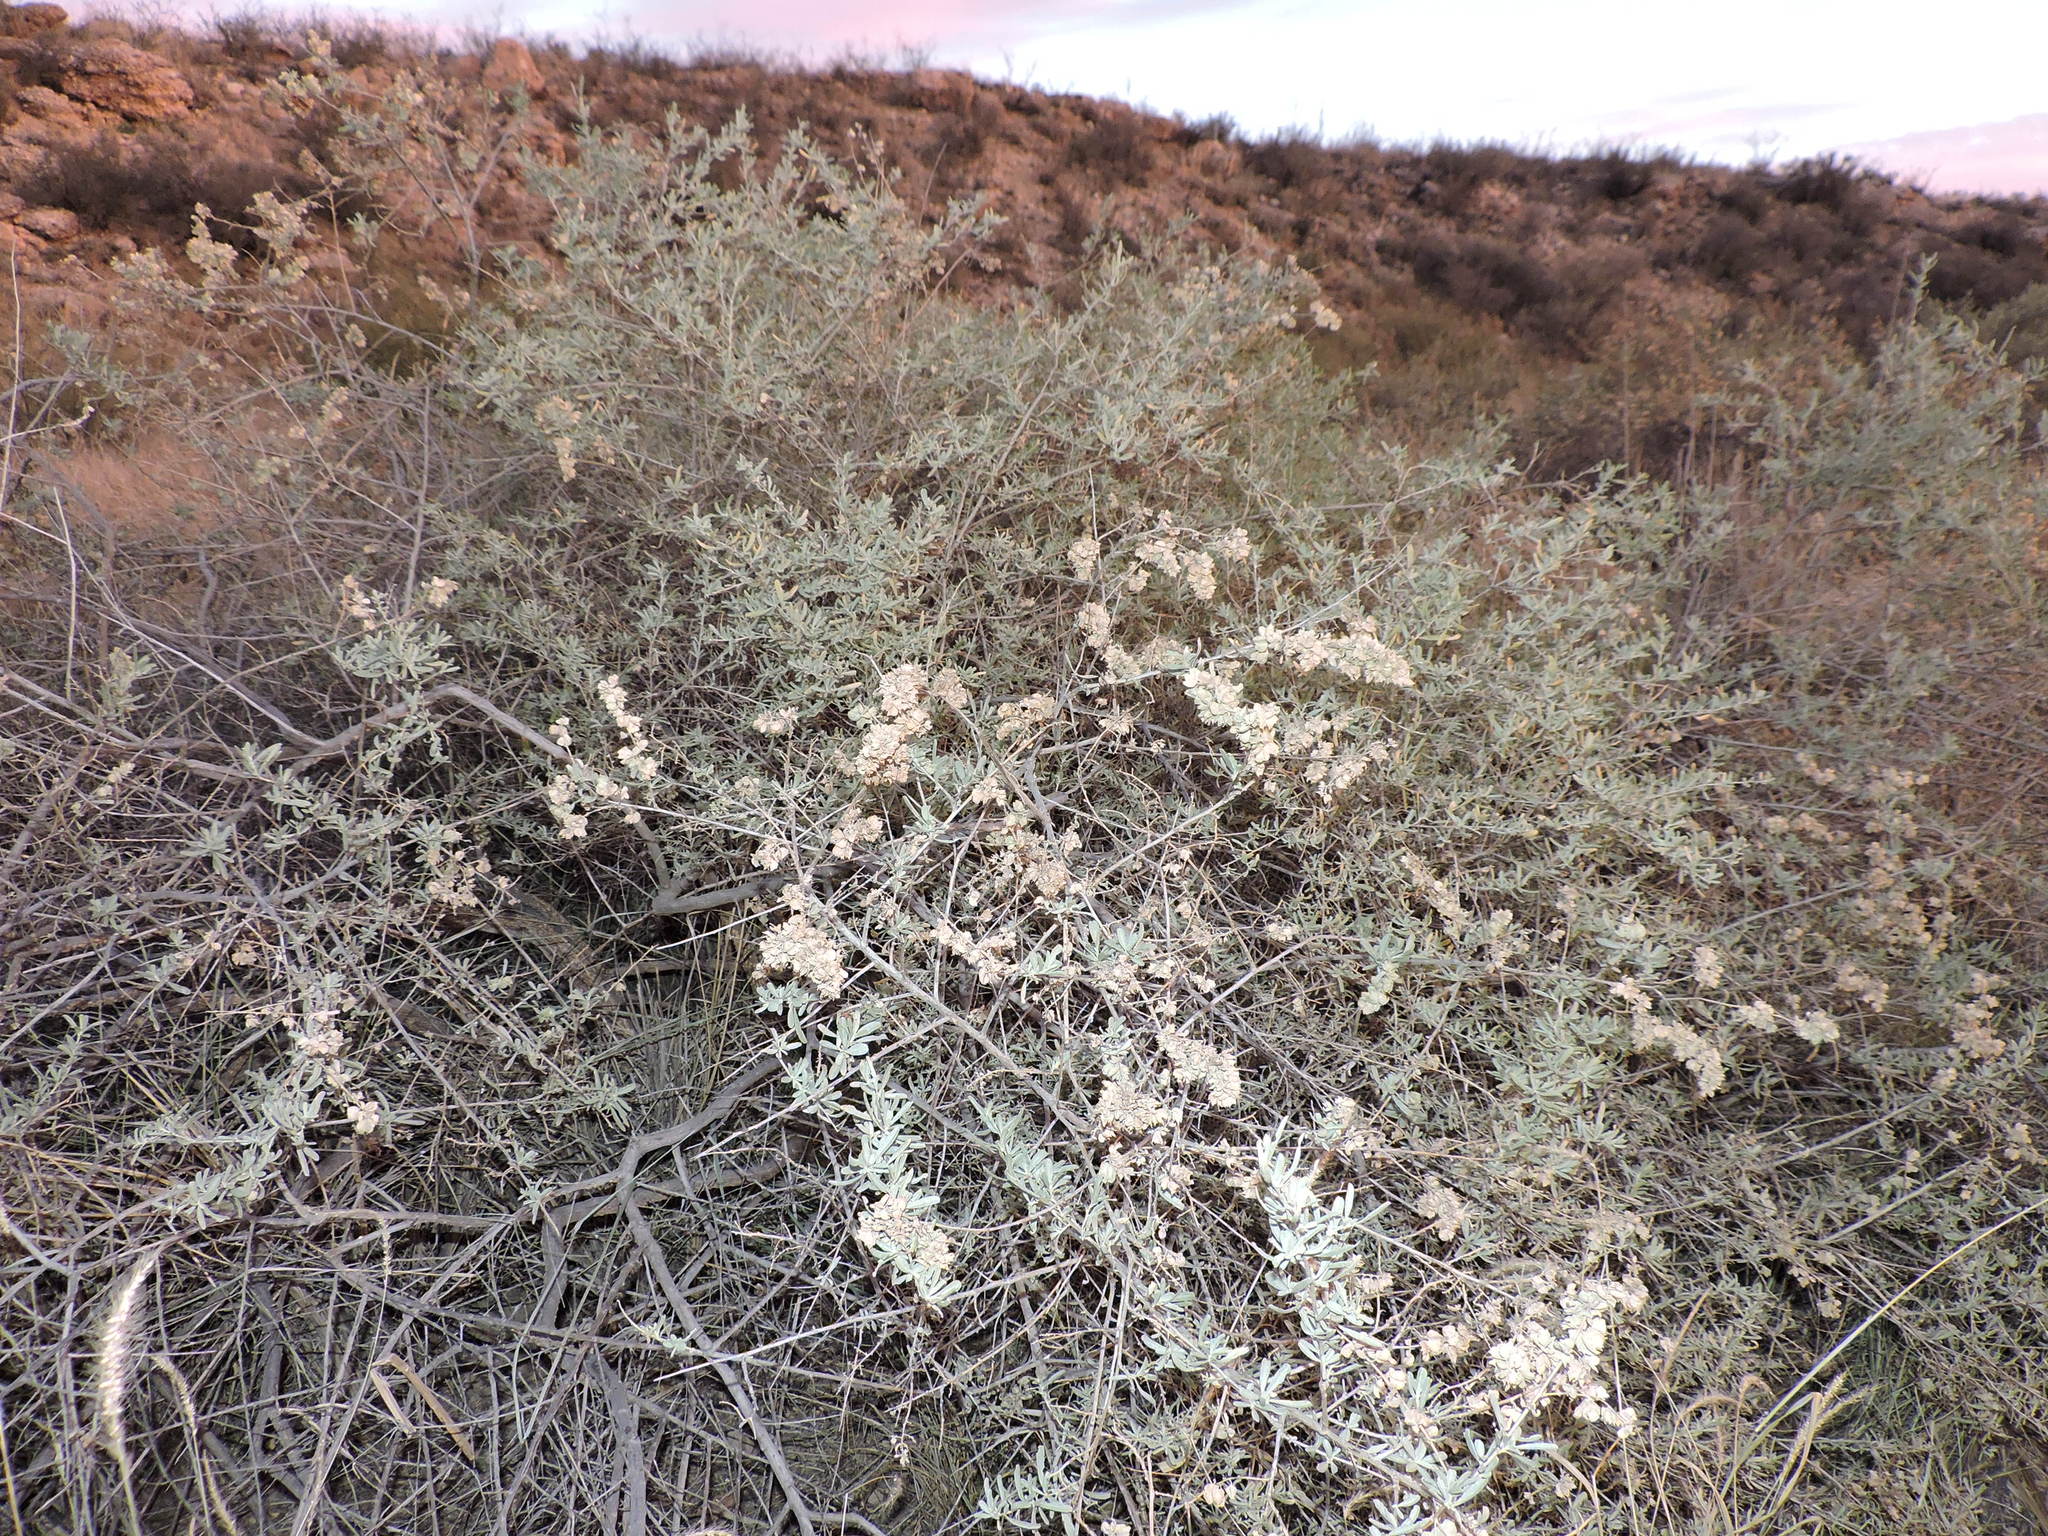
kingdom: Plantae
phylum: Tracheophyta
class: Magnoliopsida
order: Caryophyllales
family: Amaranthaceae
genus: Atriplex
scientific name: Atriplex canescens
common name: Four-wing saltbush
